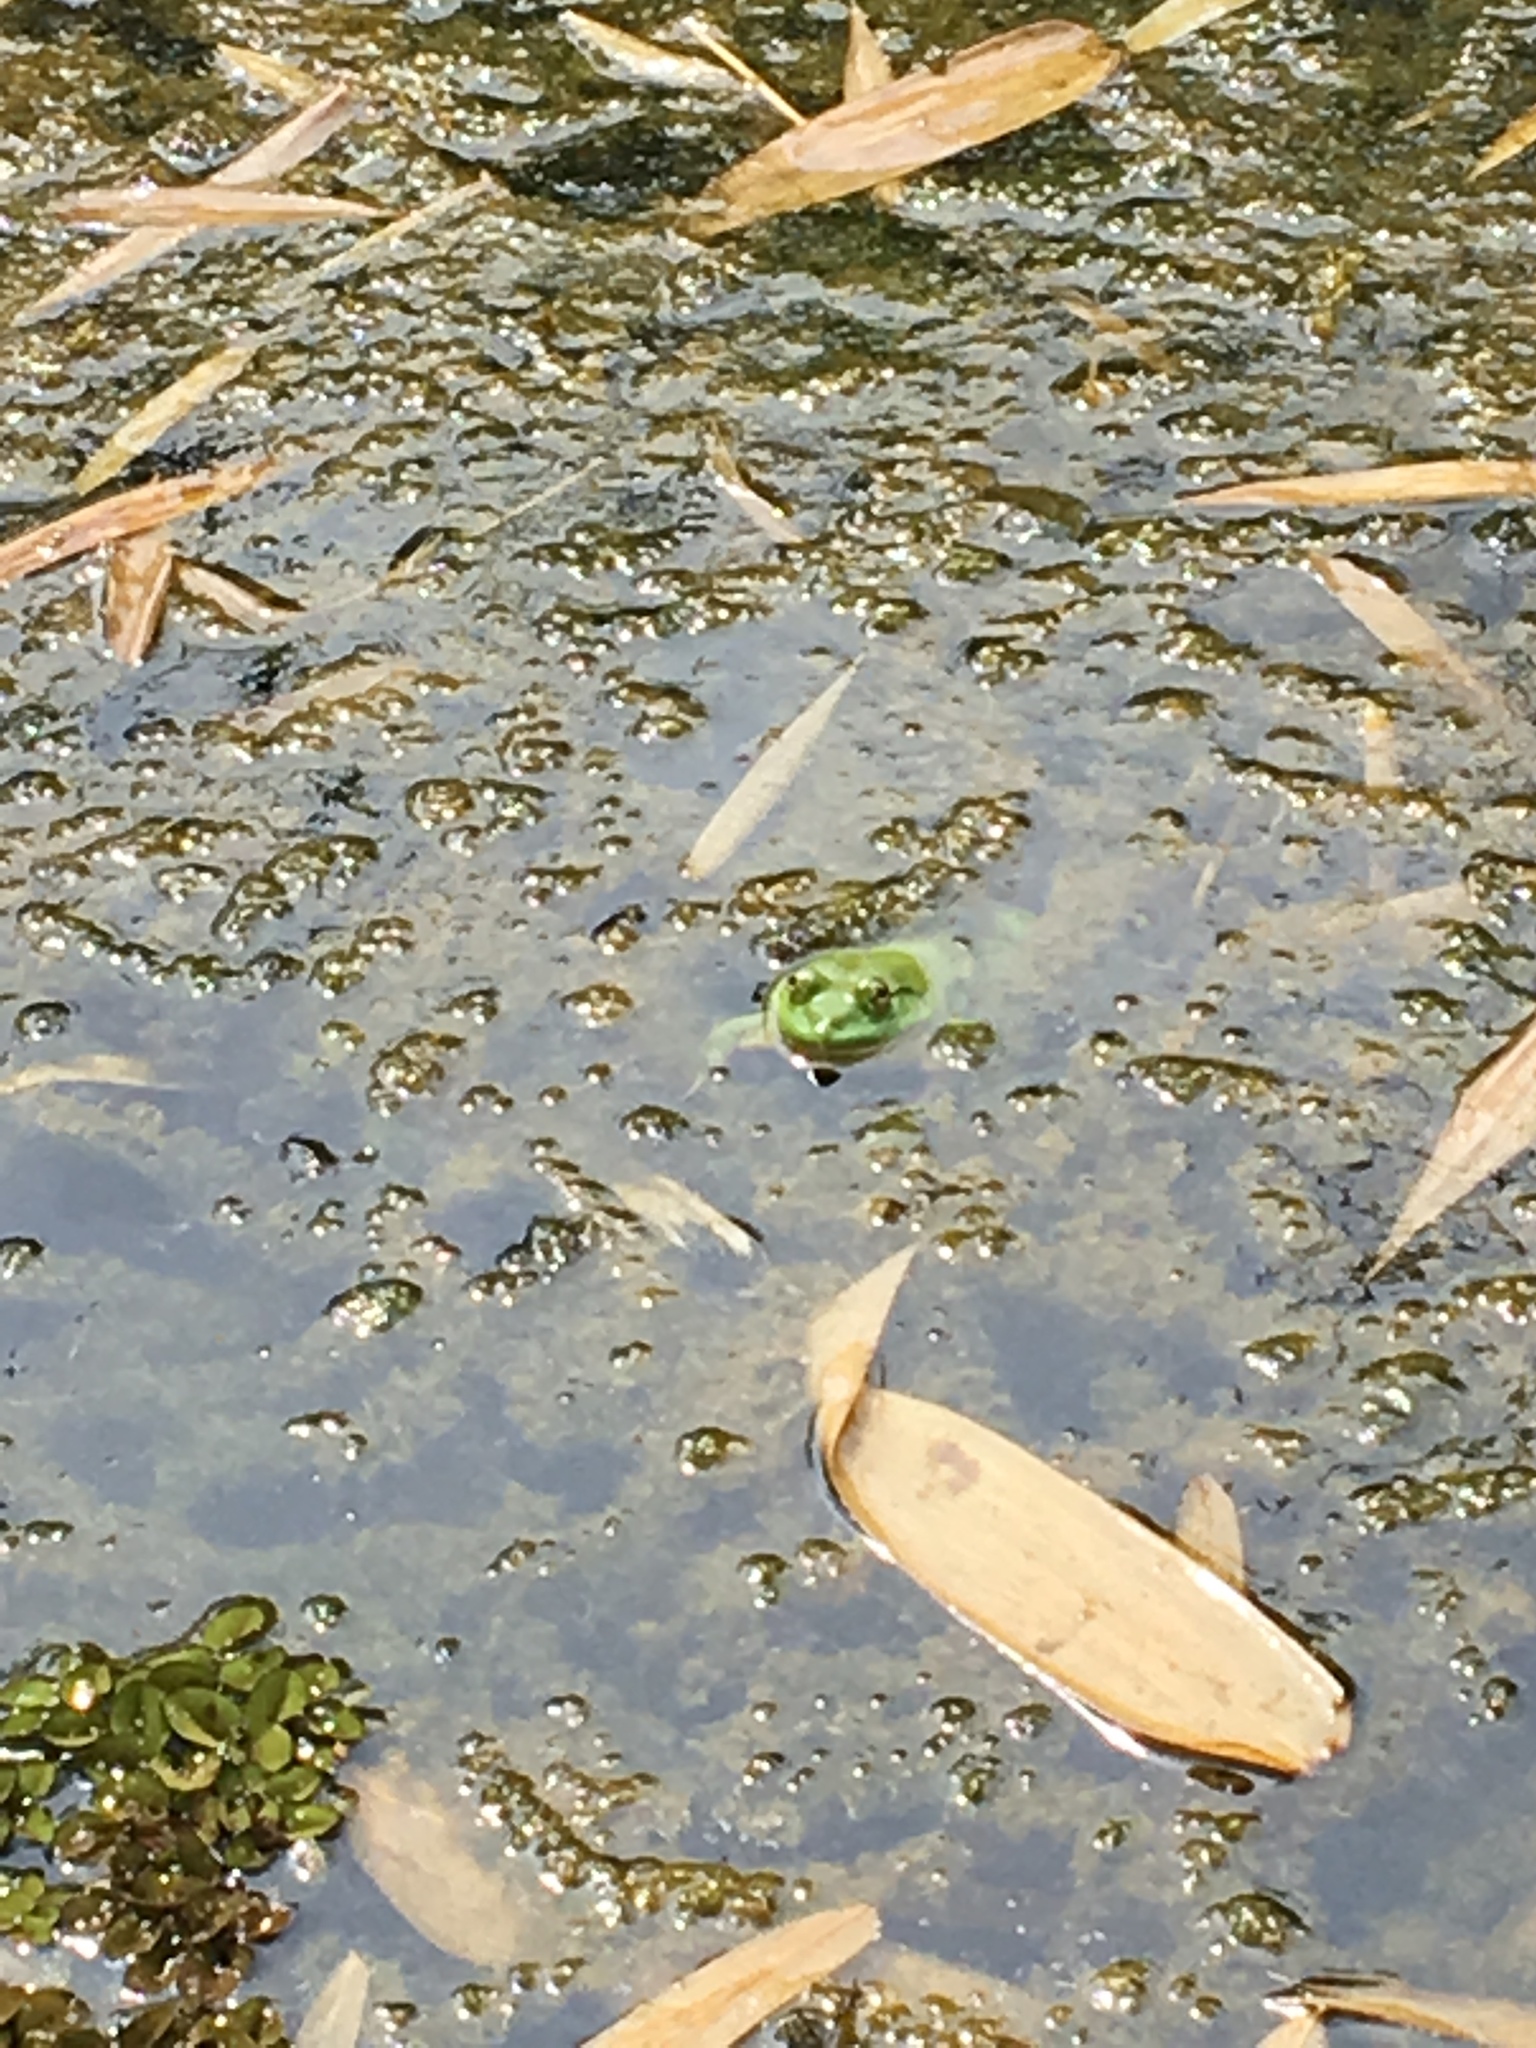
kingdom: Animalia
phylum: Chordata
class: Amphibia
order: Anura
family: Dicroglossidae
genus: Euphlyctis
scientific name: Euphlyctis hexadactylus
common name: Indian green frog
